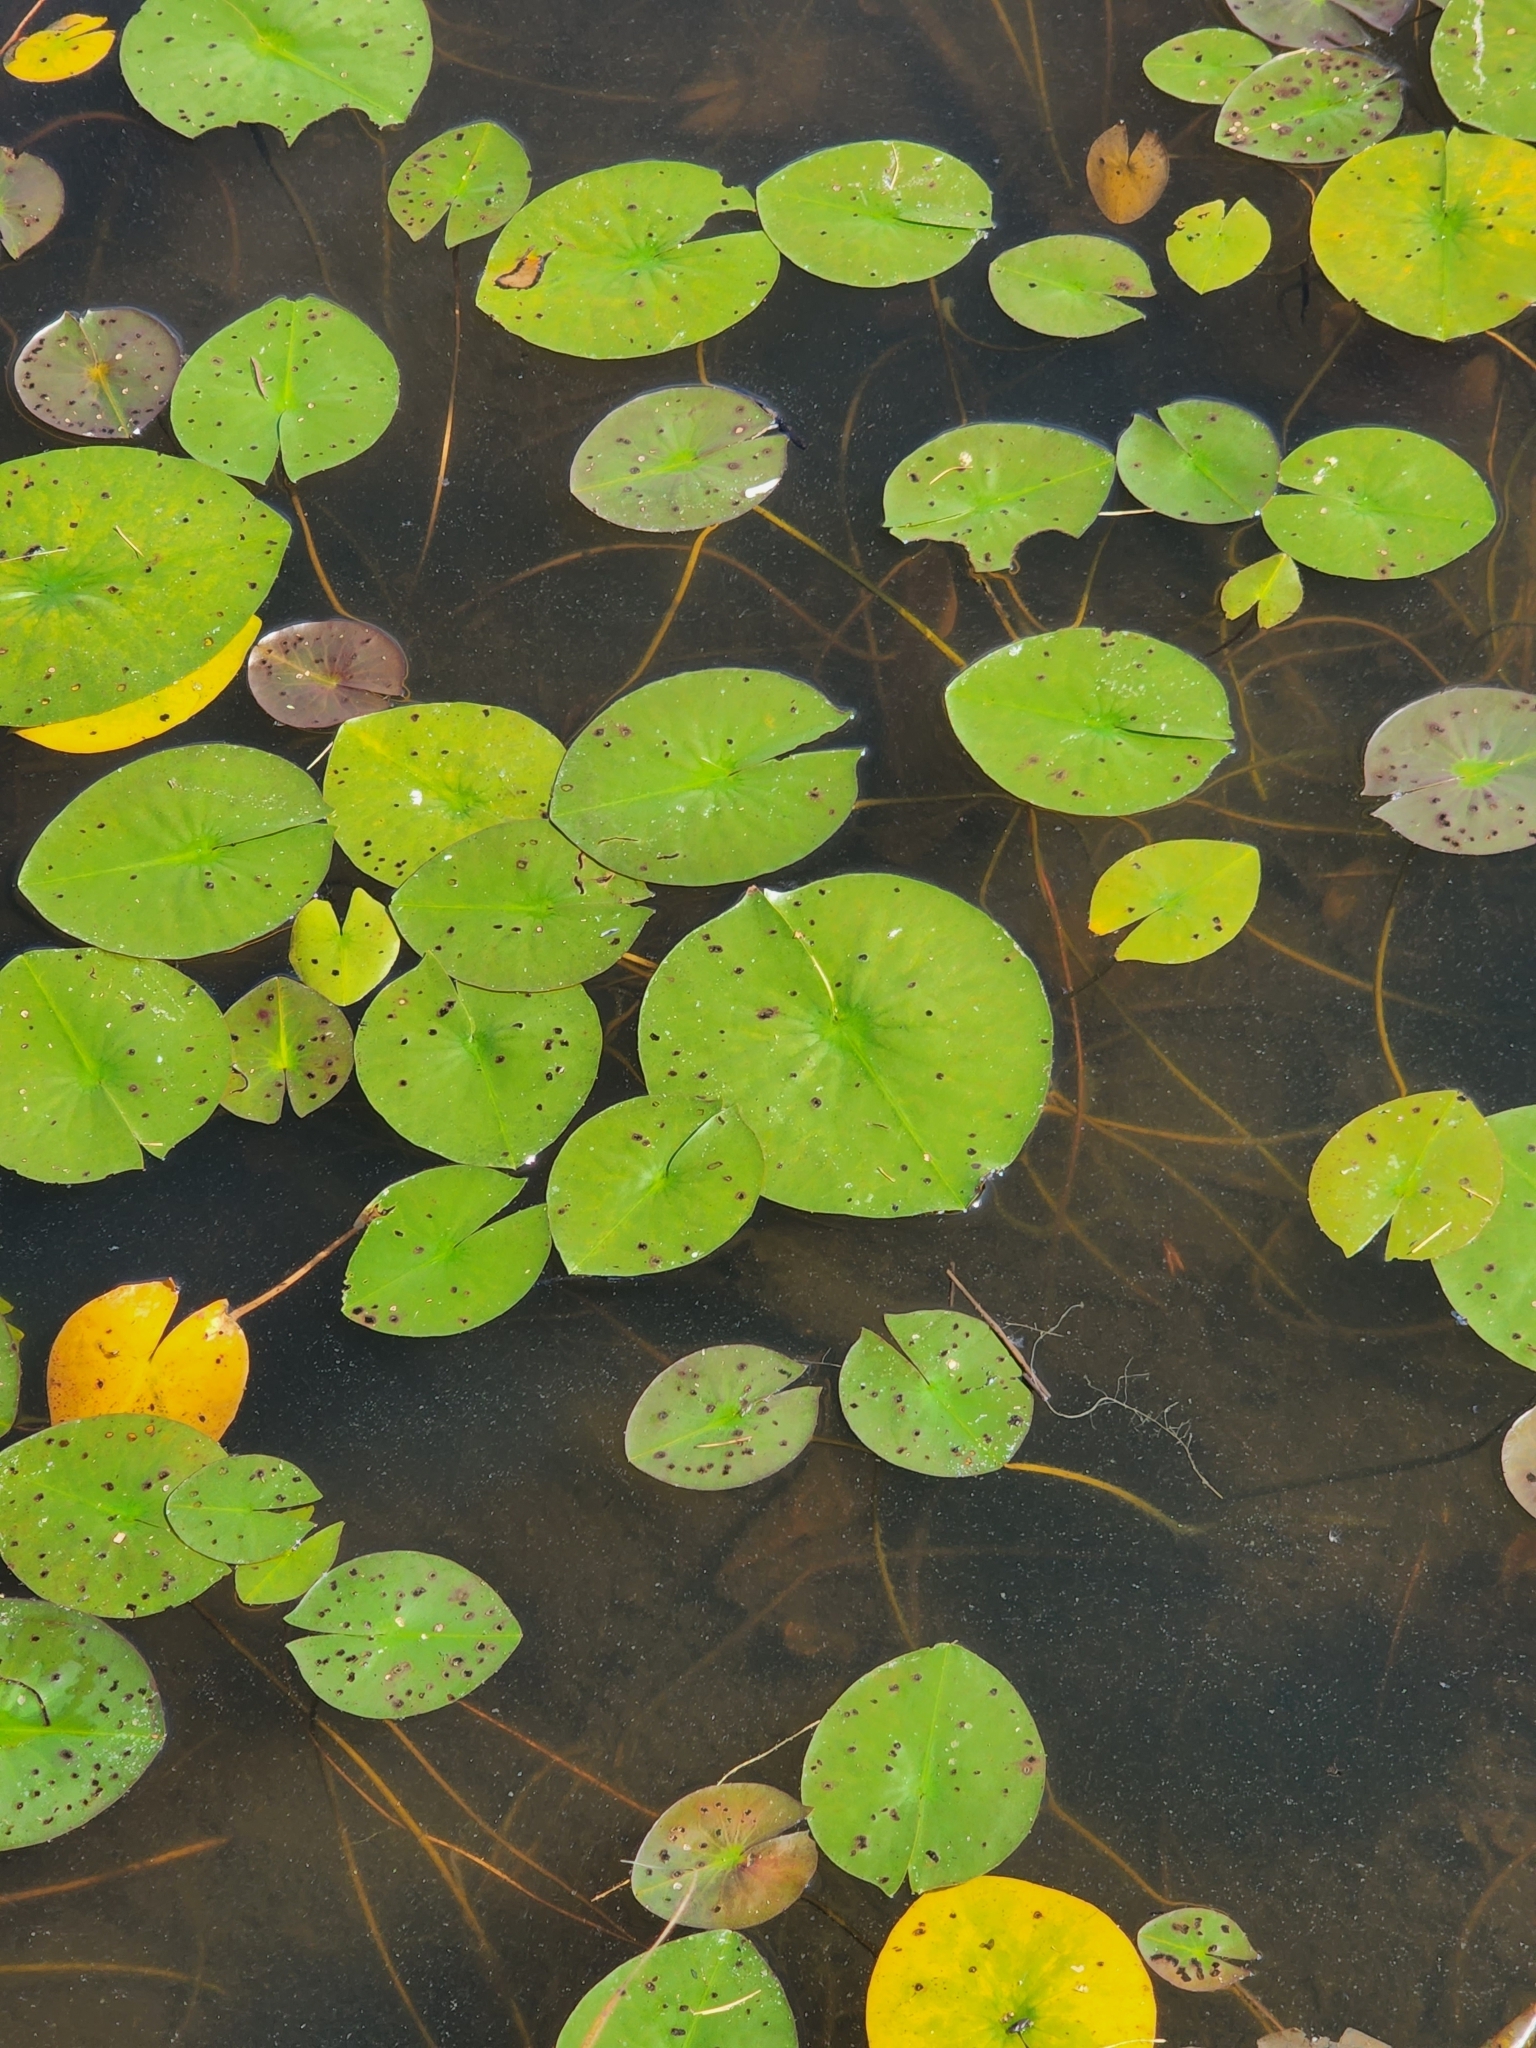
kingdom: Plantae
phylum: Tracheophyta
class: Magnoliopsida
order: Nymphaeales
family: Nymphaeaceae
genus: Nymphaea
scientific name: Nymphaea odorata
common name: Fragrant water-lily
